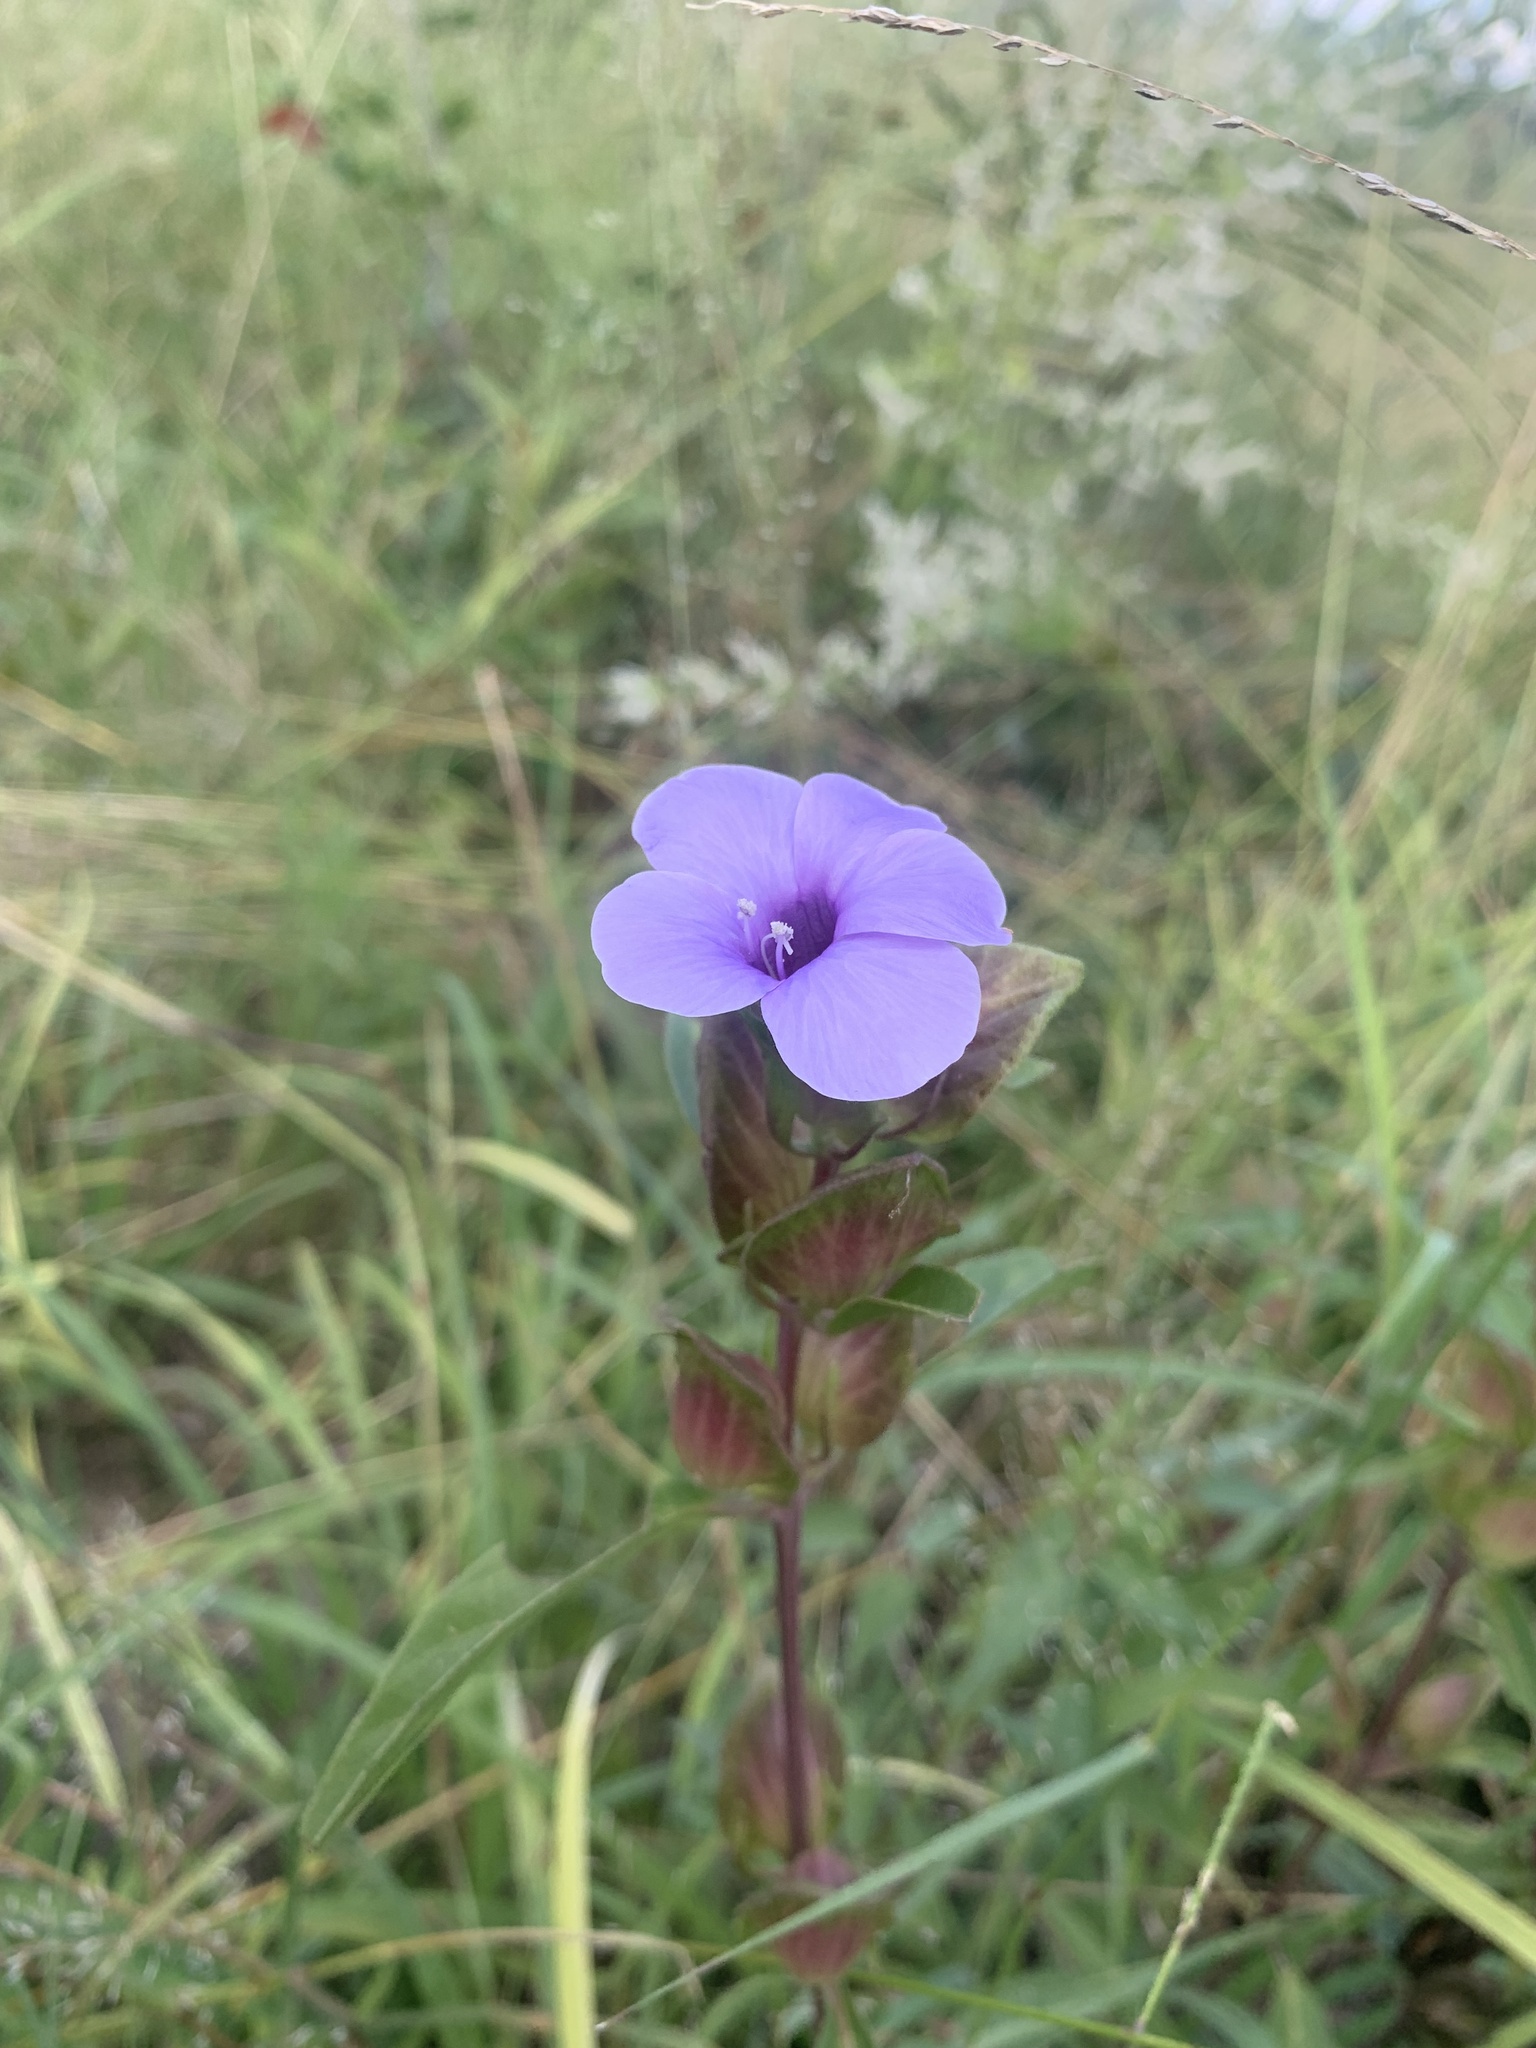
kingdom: Plantae
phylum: Tracheophyta
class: Magnoliopsida
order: Lamiales
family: Acanthaceae
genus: Barleria
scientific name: Barleria mackenii
